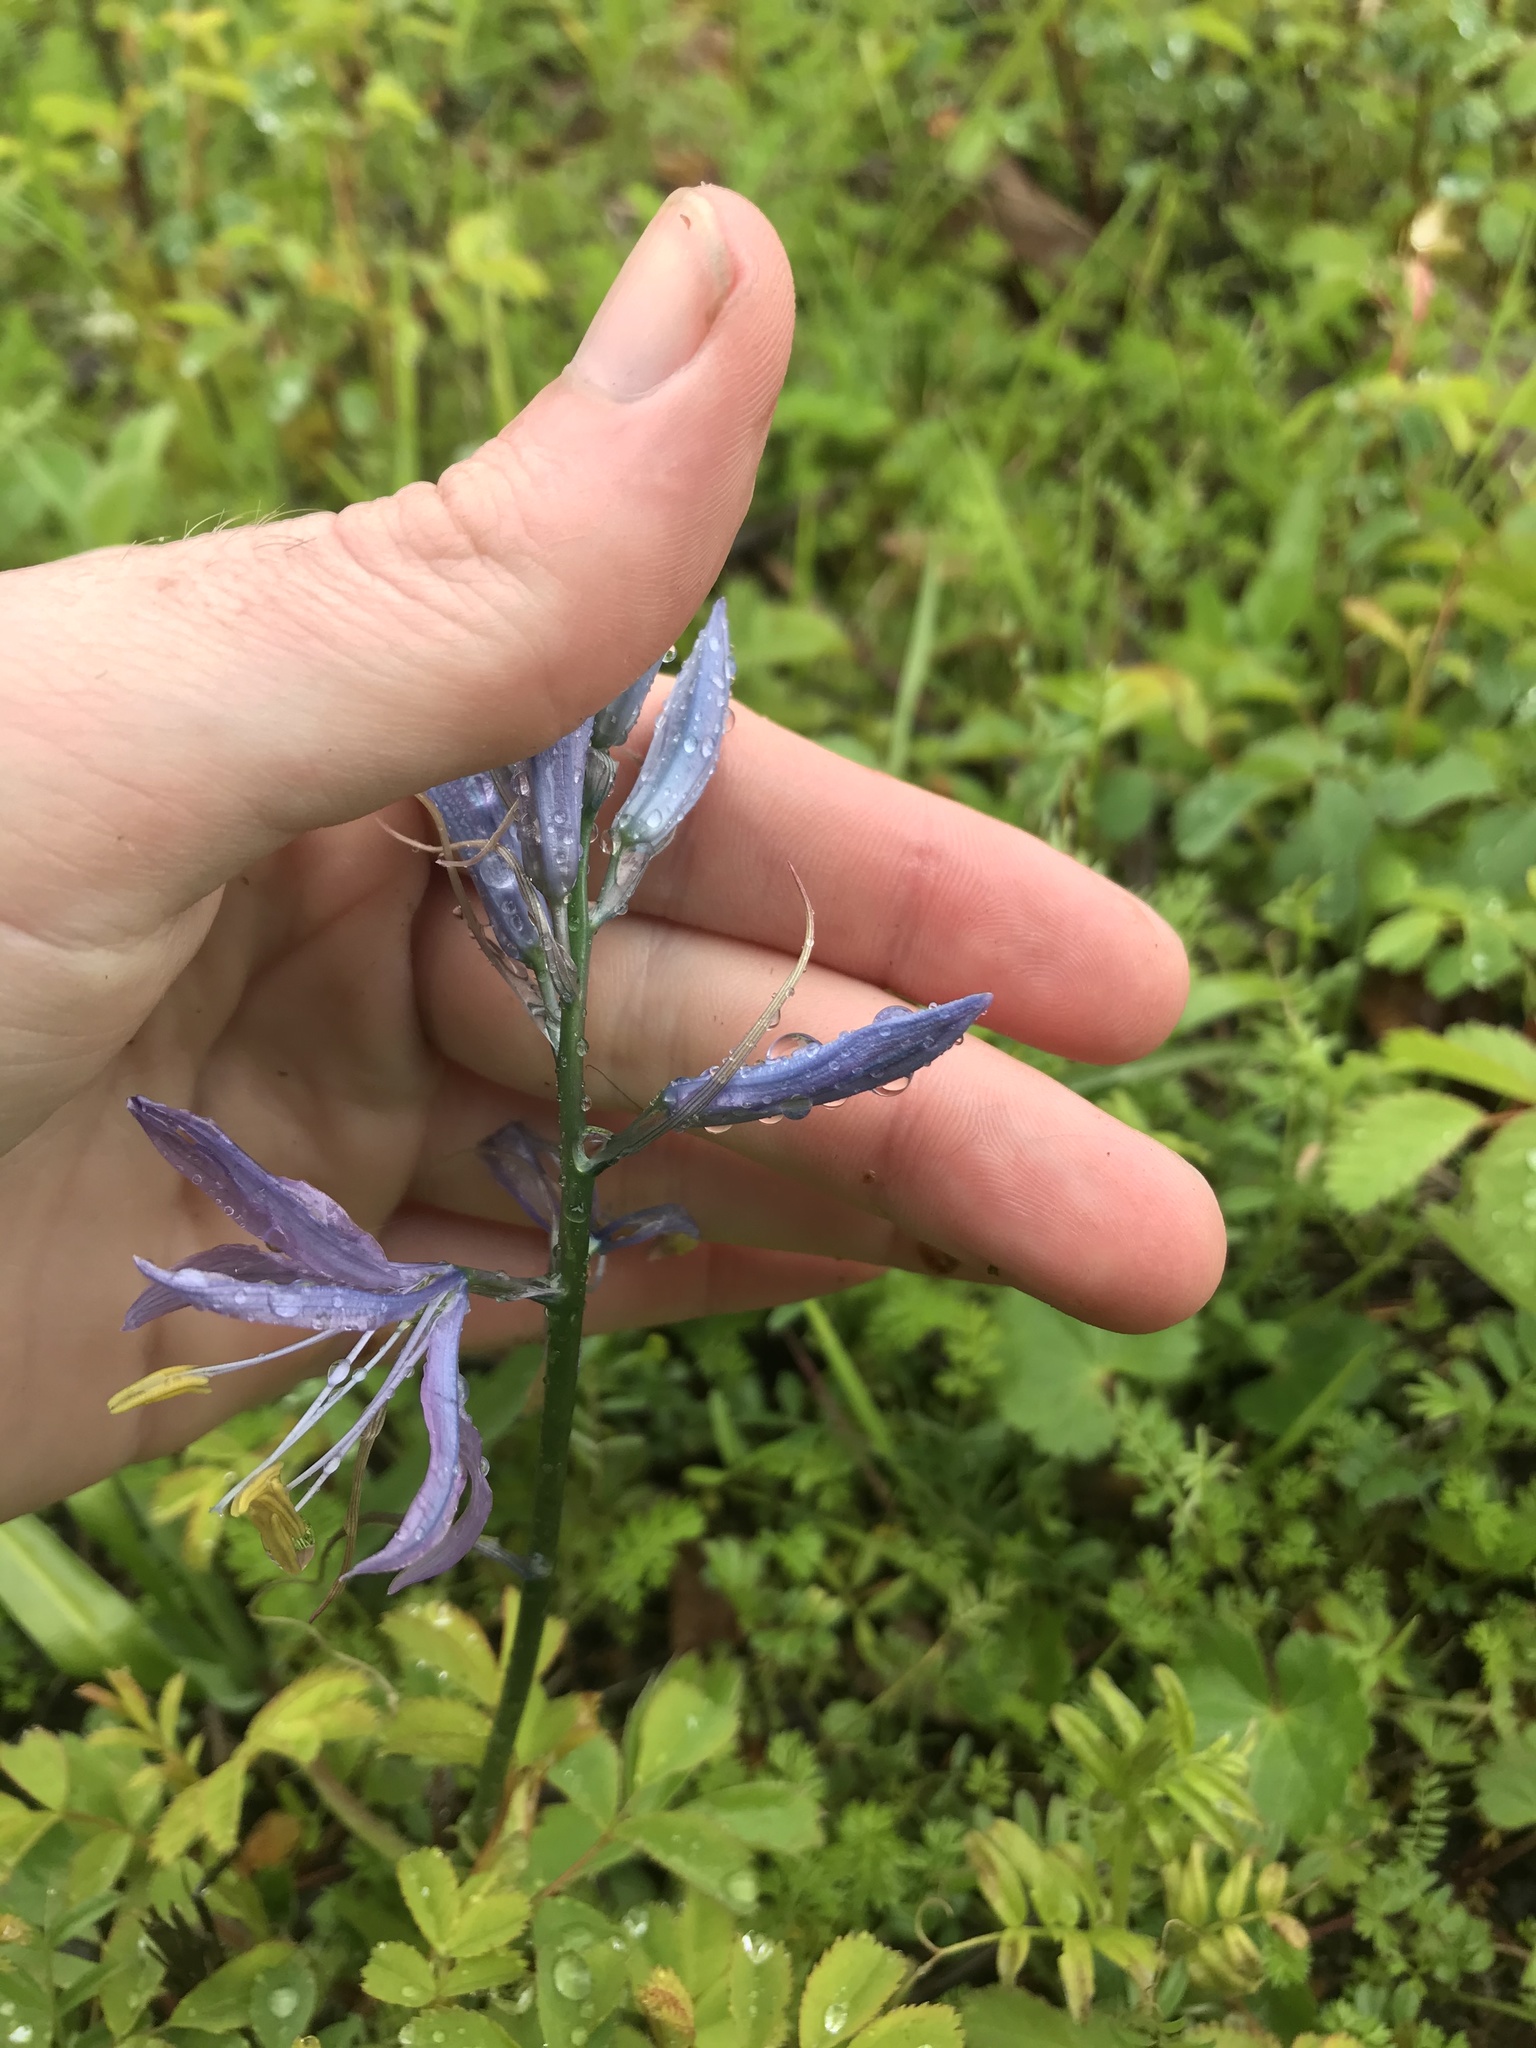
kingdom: Plantae
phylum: Tracheophyta
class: Liliopsida
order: Asparagales
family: Asparagaceae
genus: Camassia
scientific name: Camassia quamash
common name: Common camas
